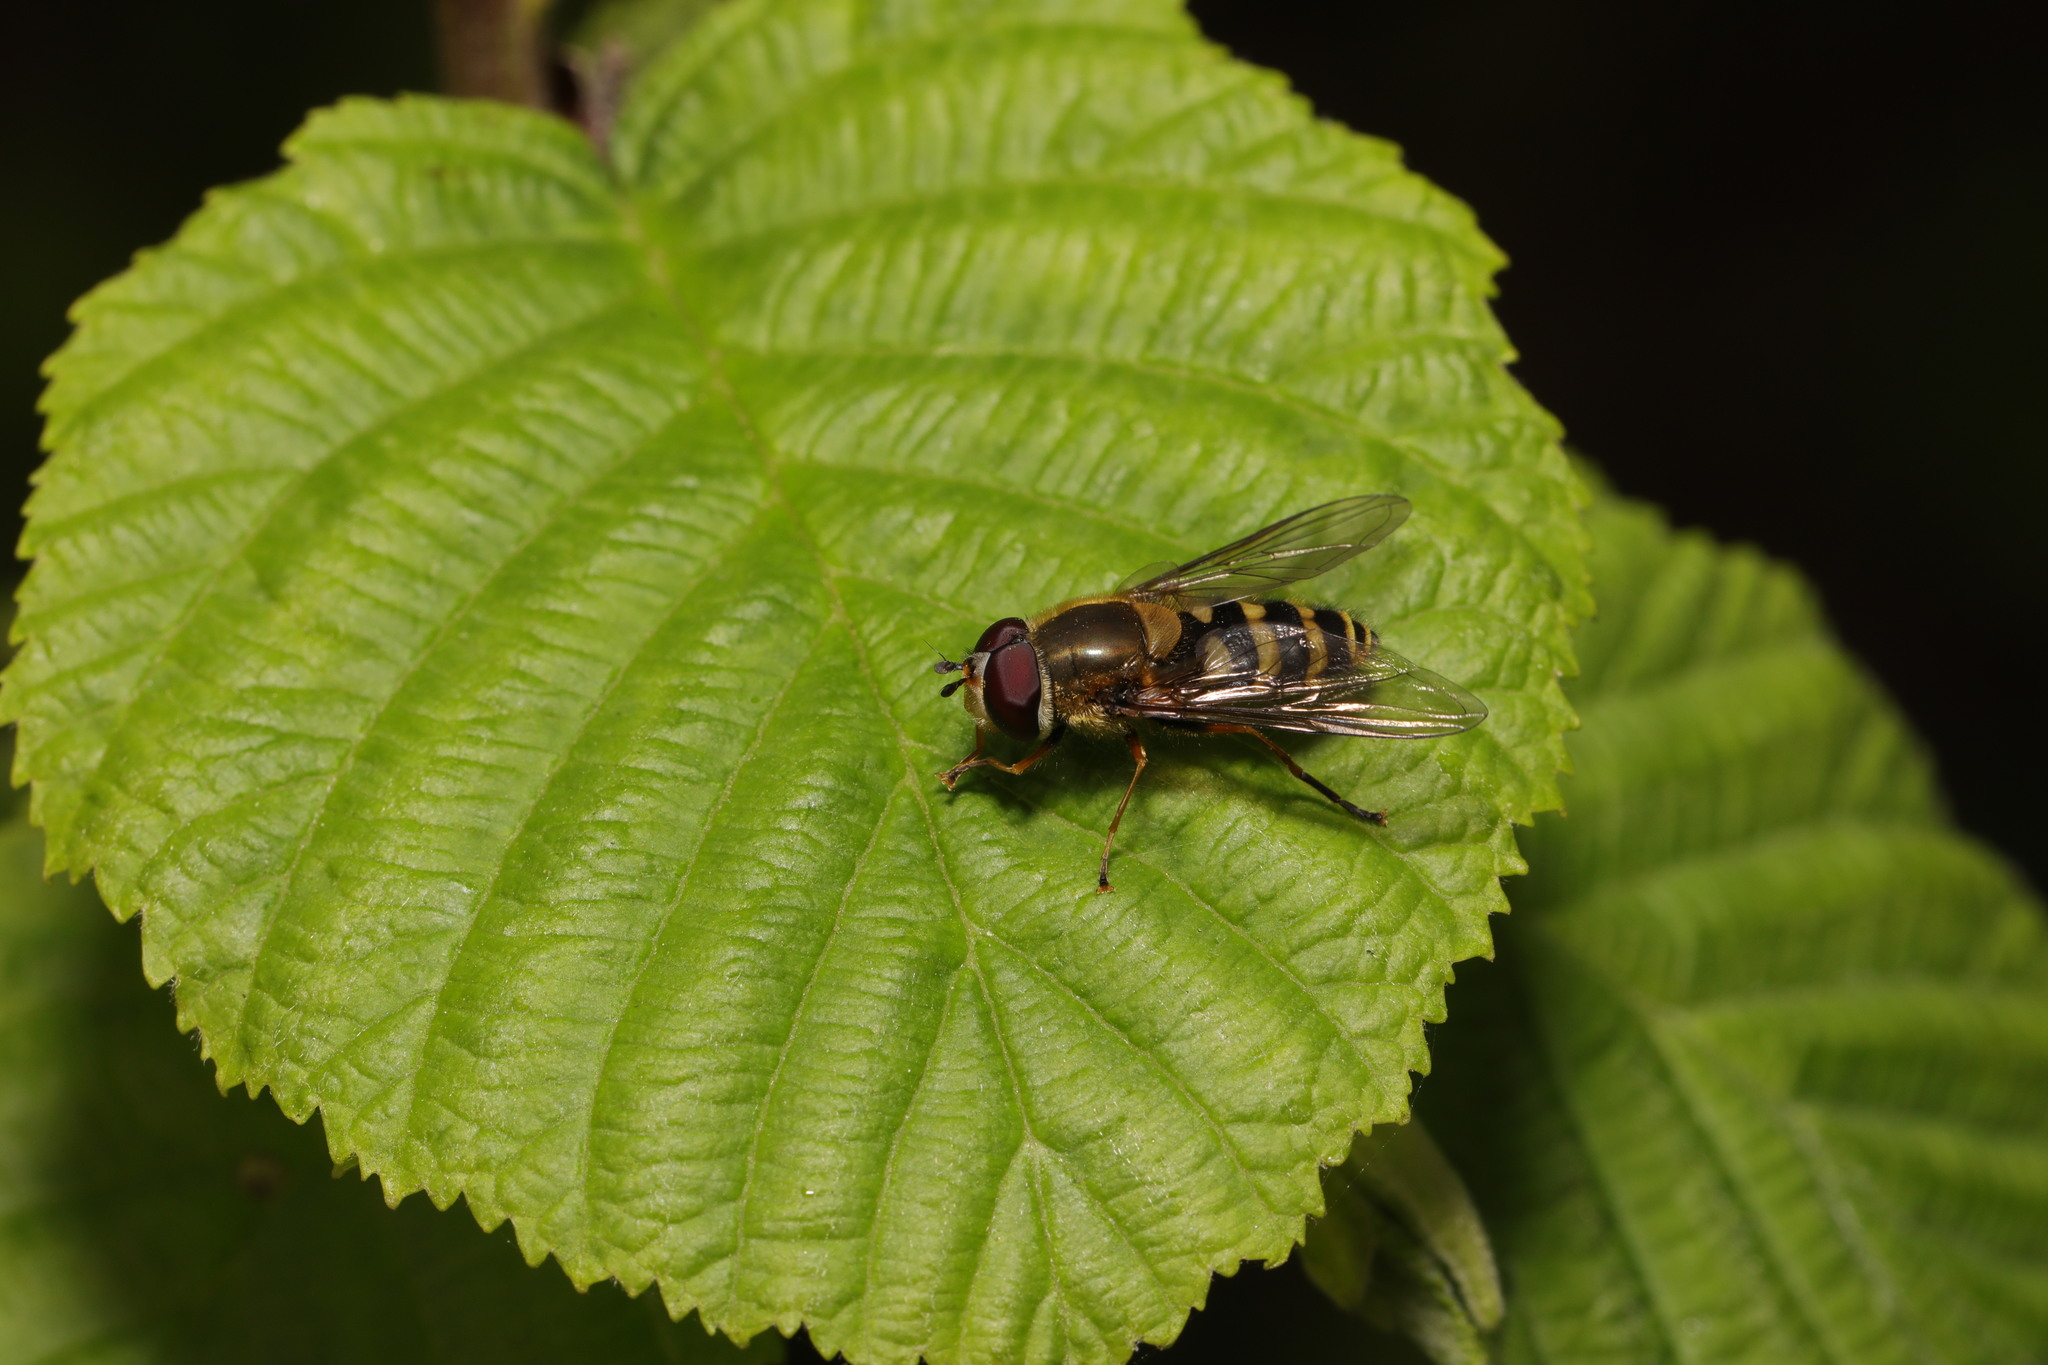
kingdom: Animalia
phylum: Arthropoda
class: Insecta
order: Diptera
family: Syrphidae
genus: Syrphus
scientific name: Syrphus ribesii
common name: Common flower fly
